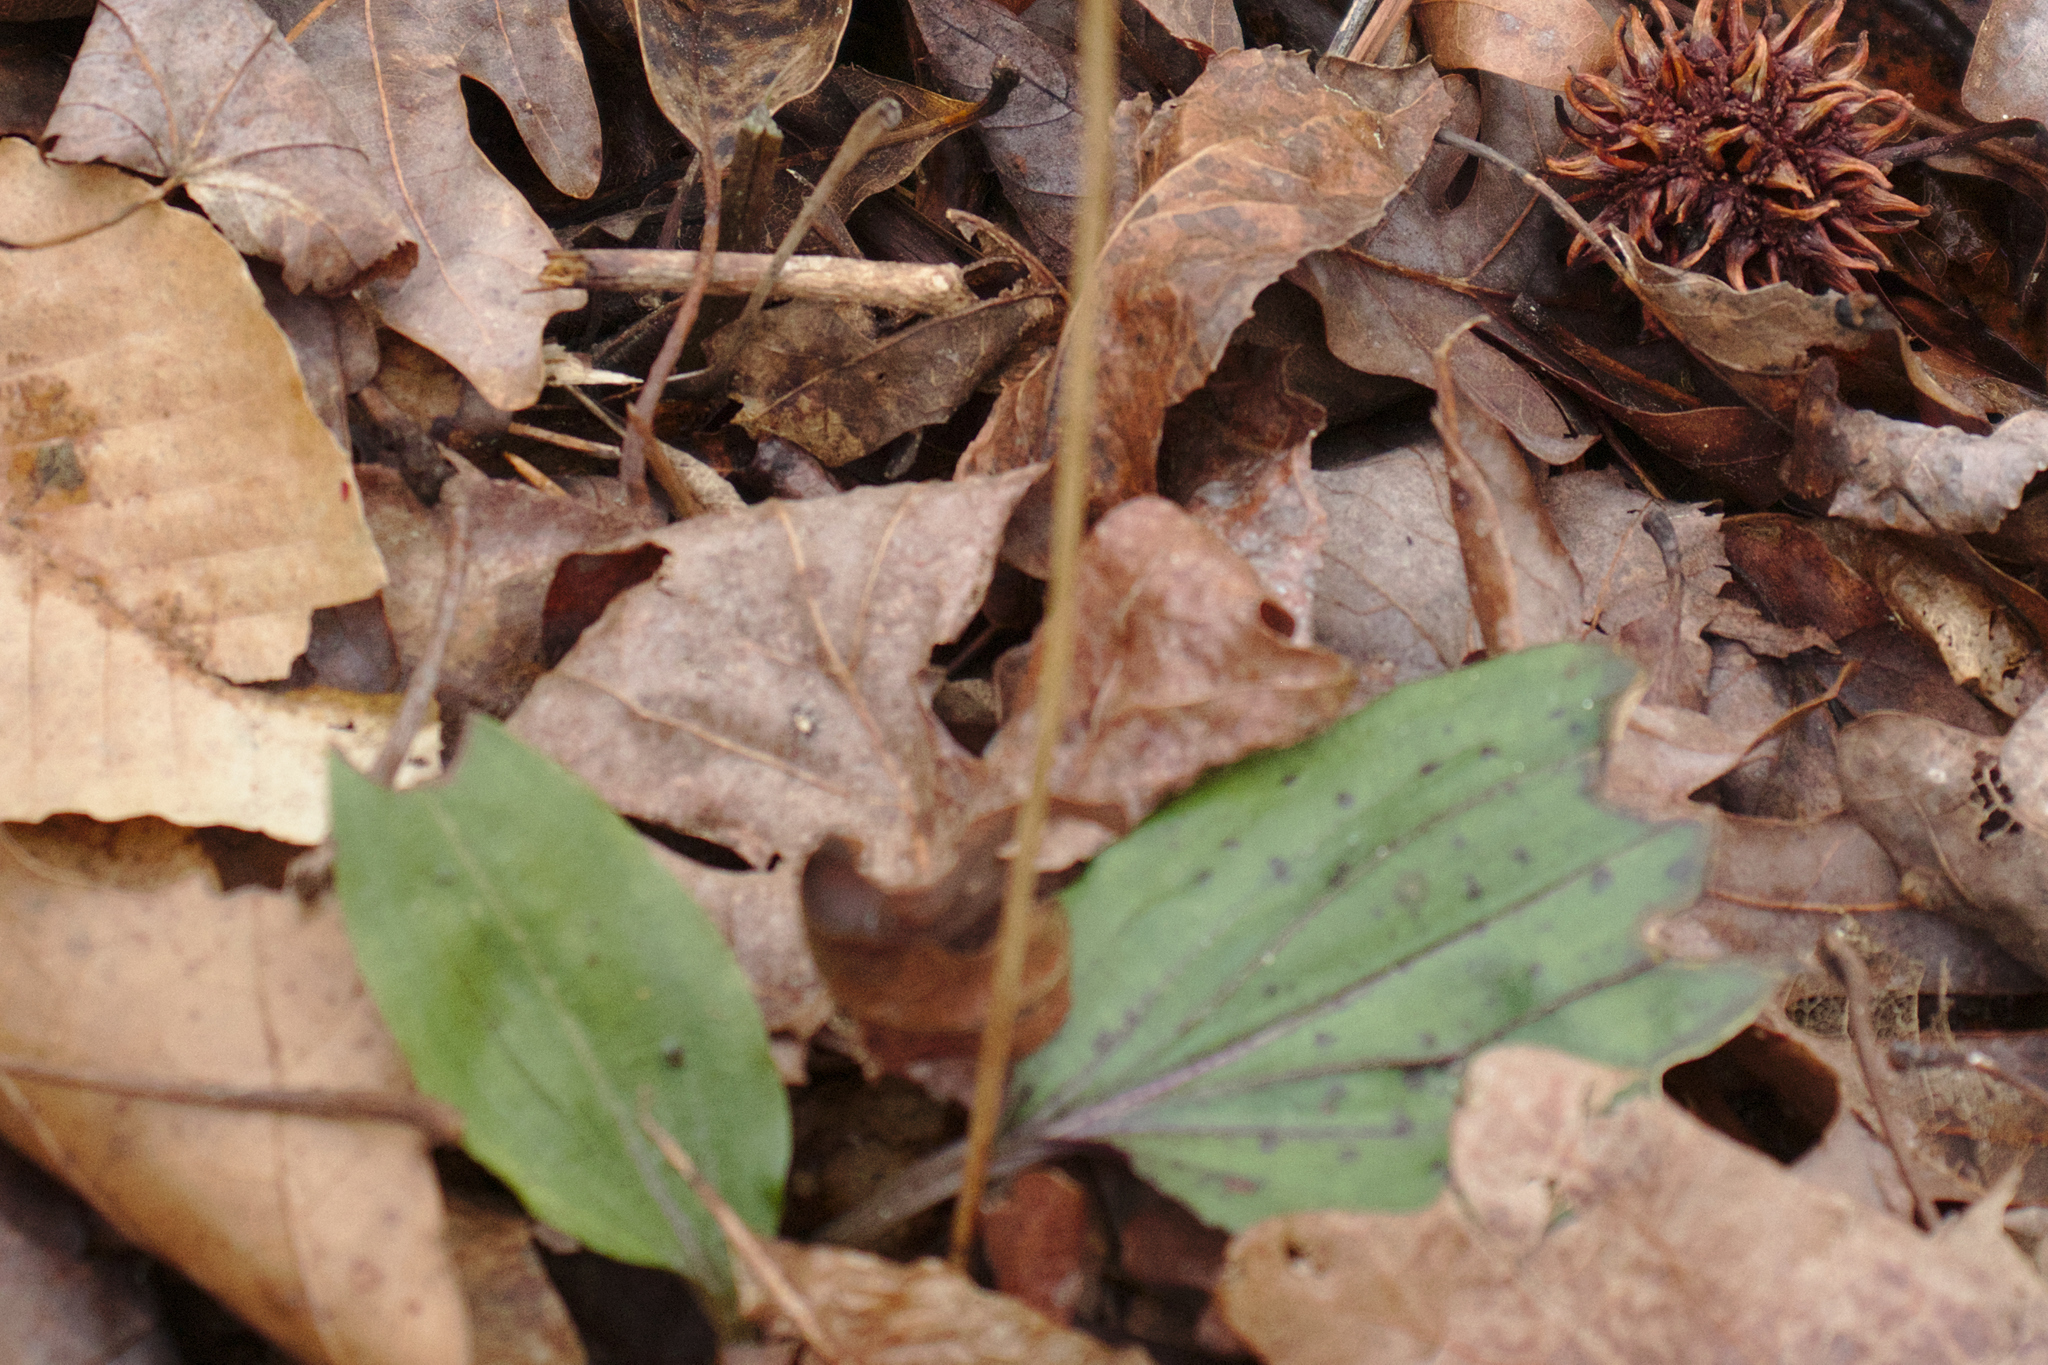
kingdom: Plantae
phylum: Tracheophyta
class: Liliopsida
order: Asparagales
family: Orchidaceae
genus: Tipularia
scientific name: Tipularia discolor
